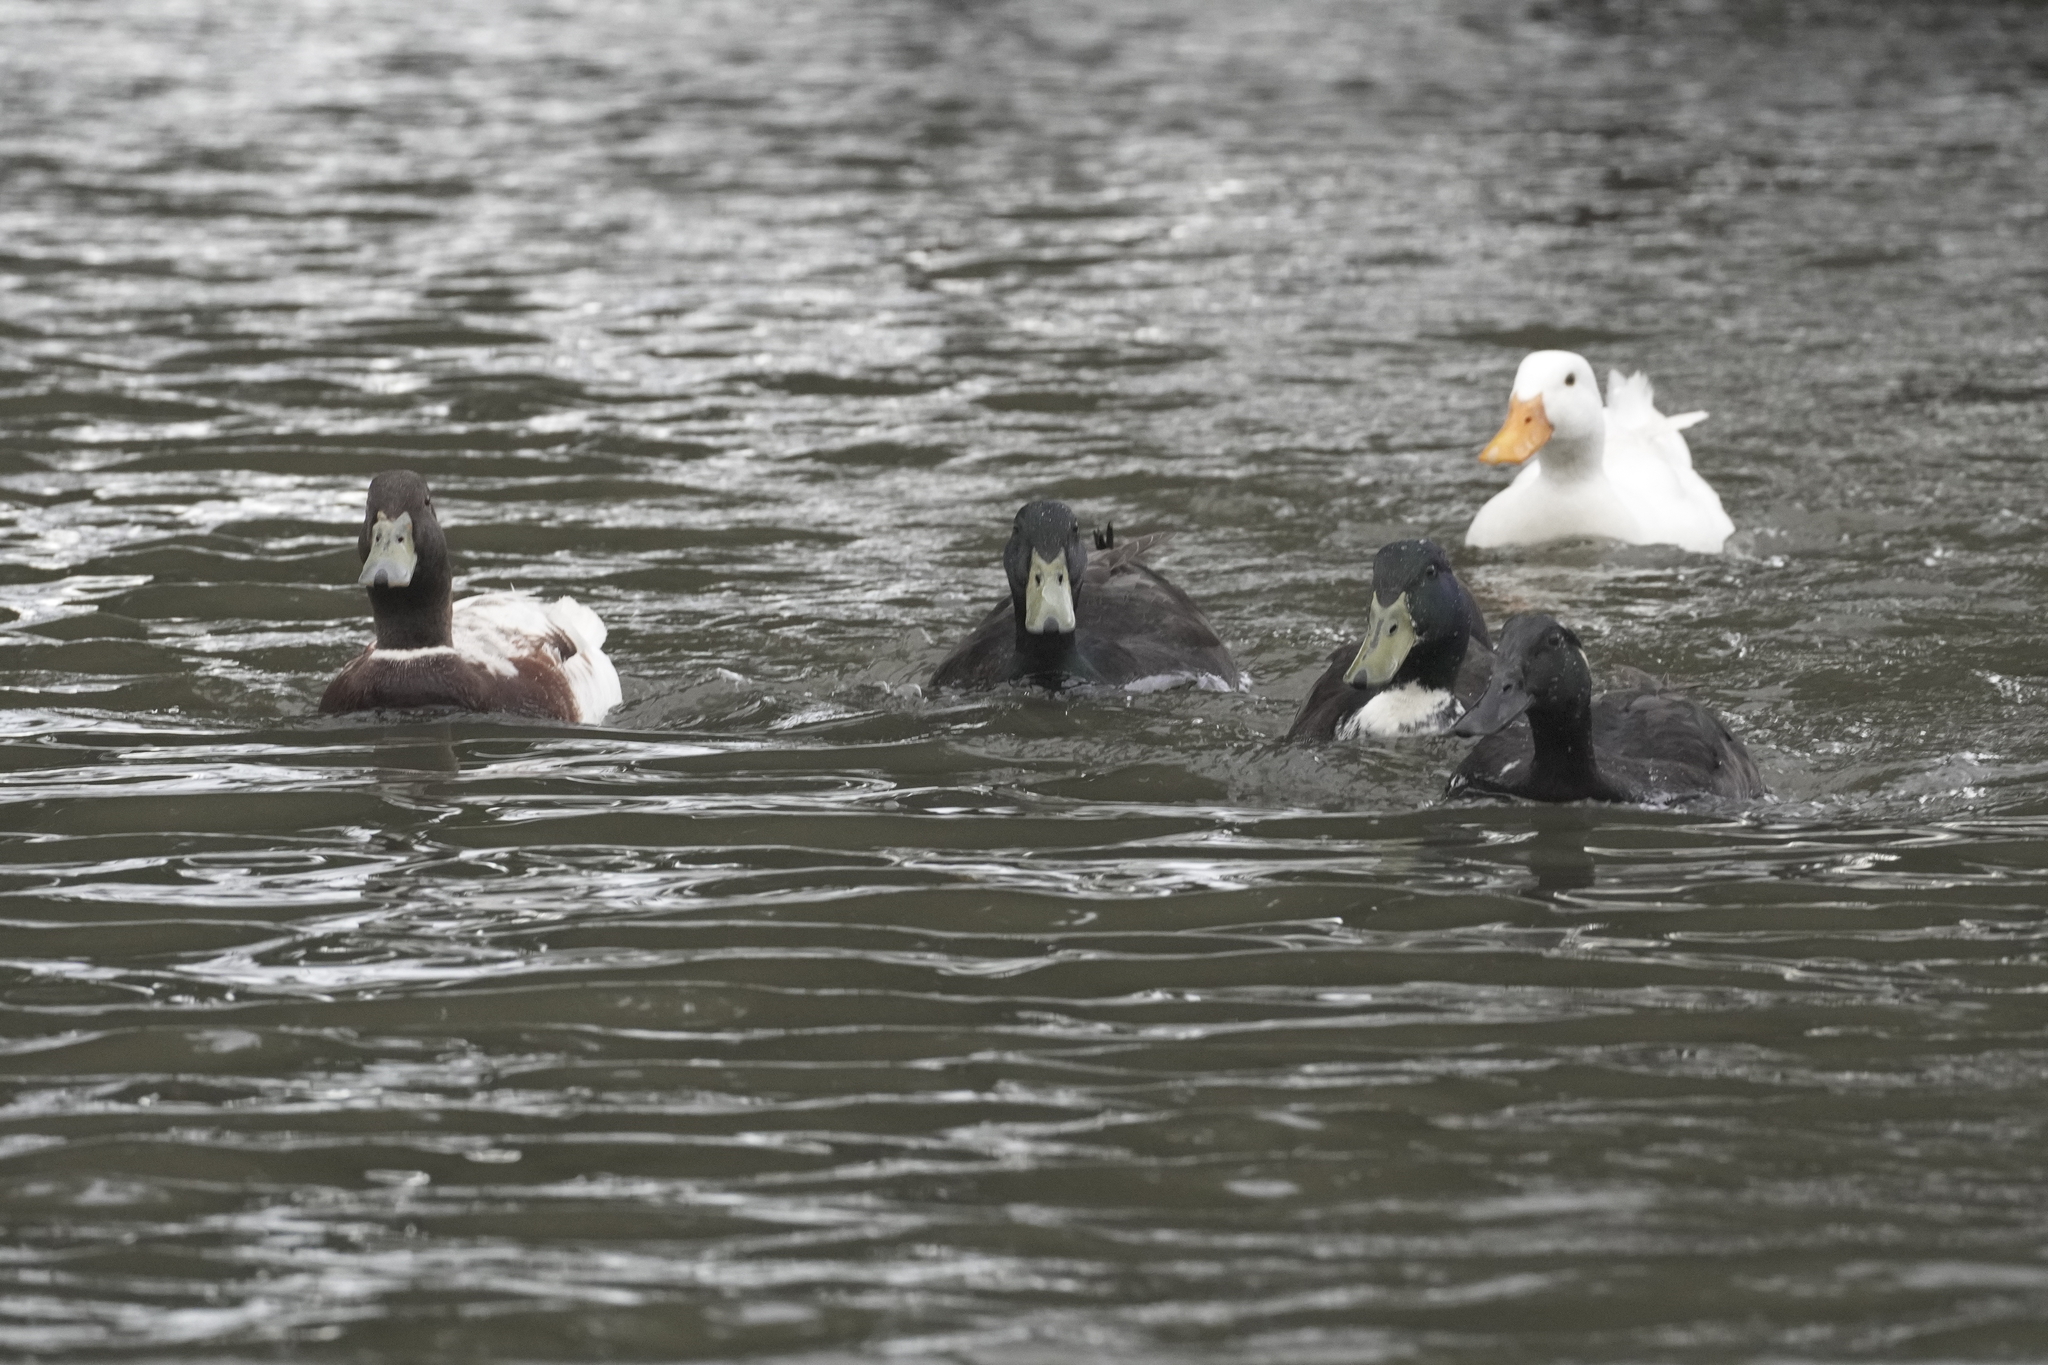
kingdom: Animalia
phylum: Chordata
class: Aves
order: Anseriformes
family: Anatidae
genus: Anas
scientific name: Anas platyrhynchos
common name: Mallard
